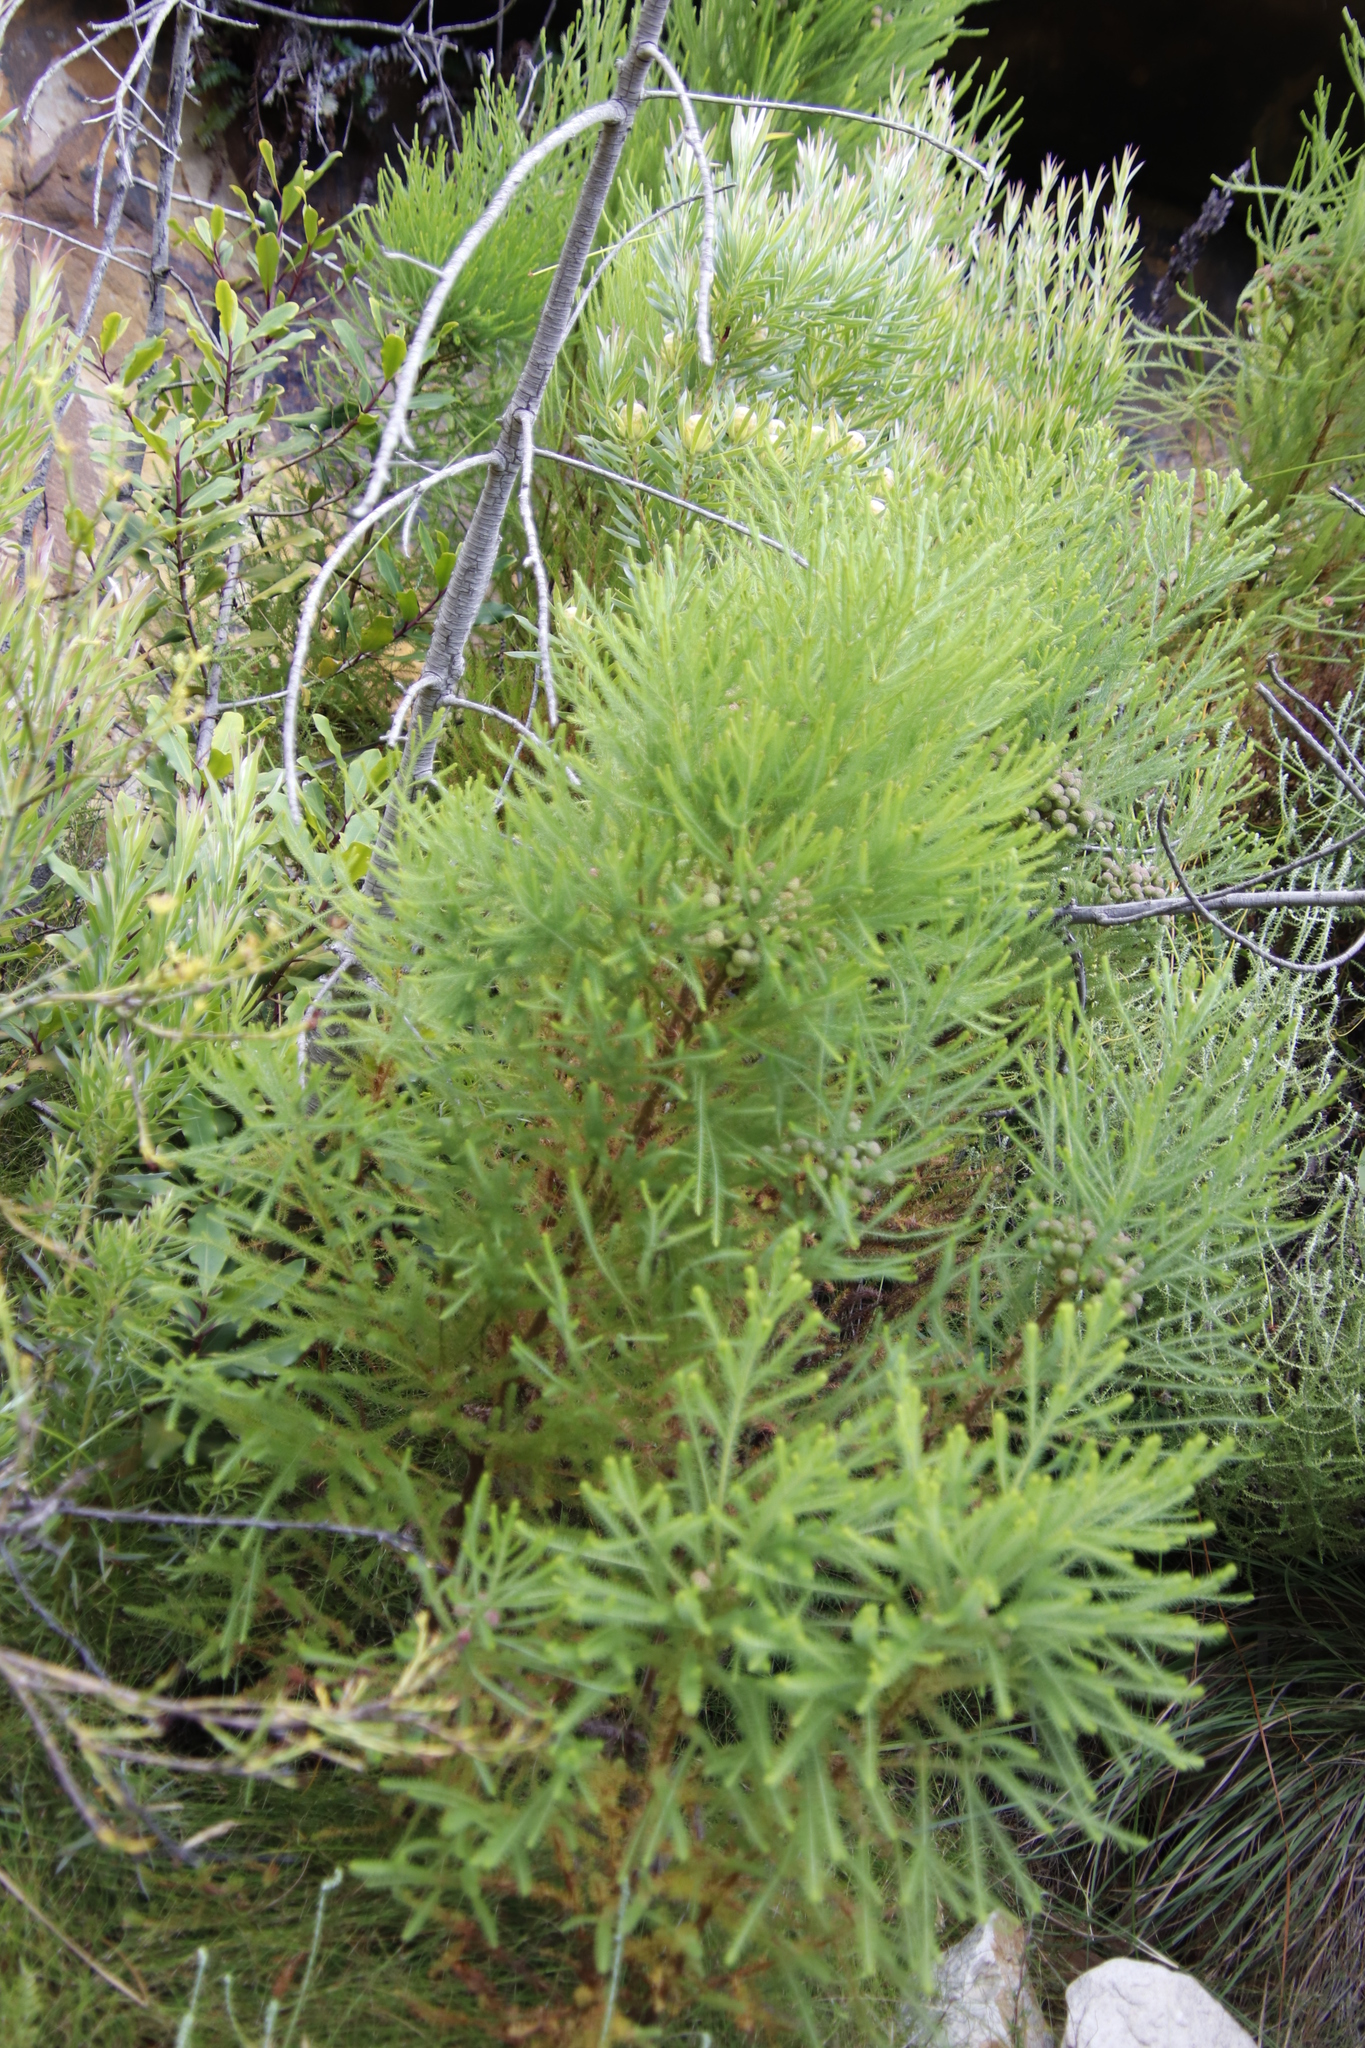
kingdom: Plantae
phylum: Tracheophyta
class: Magnoliopsida
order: Bruniales
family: Bruniaceae
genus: Berzelia
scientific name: Berzelia lanuginosa
